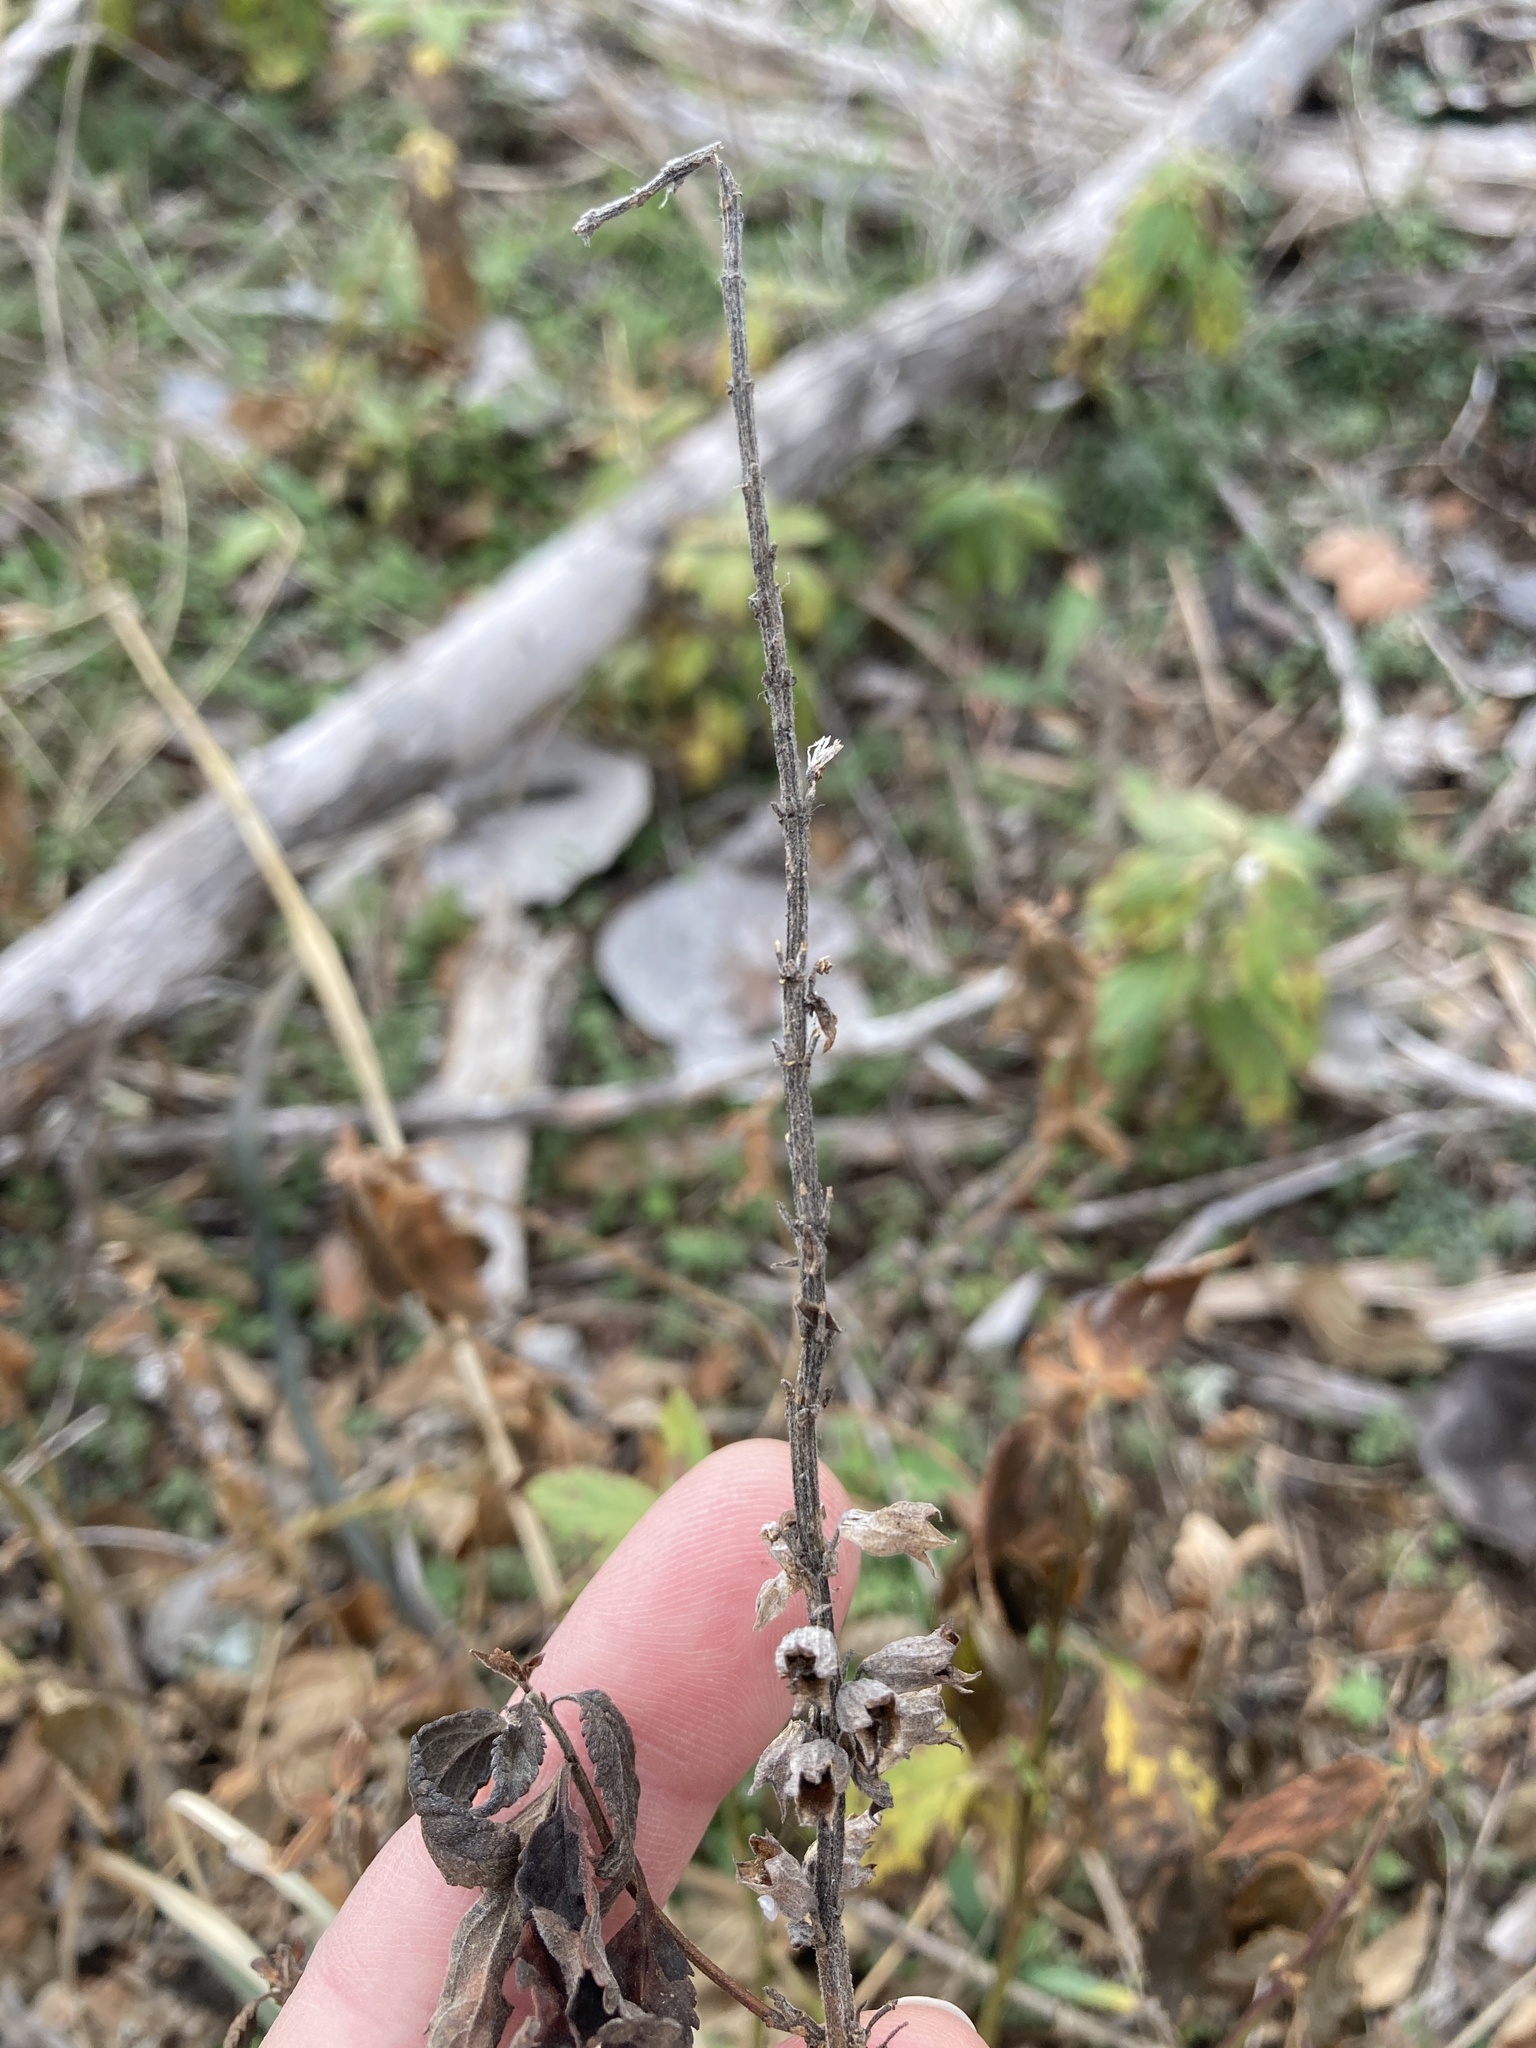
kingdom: Plantae
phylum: Tracheophyta
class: Magnoliopsida
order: Lamiales
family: Lamiaceae
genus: Teucrium
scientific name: Teucrium canadense
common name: American germander
